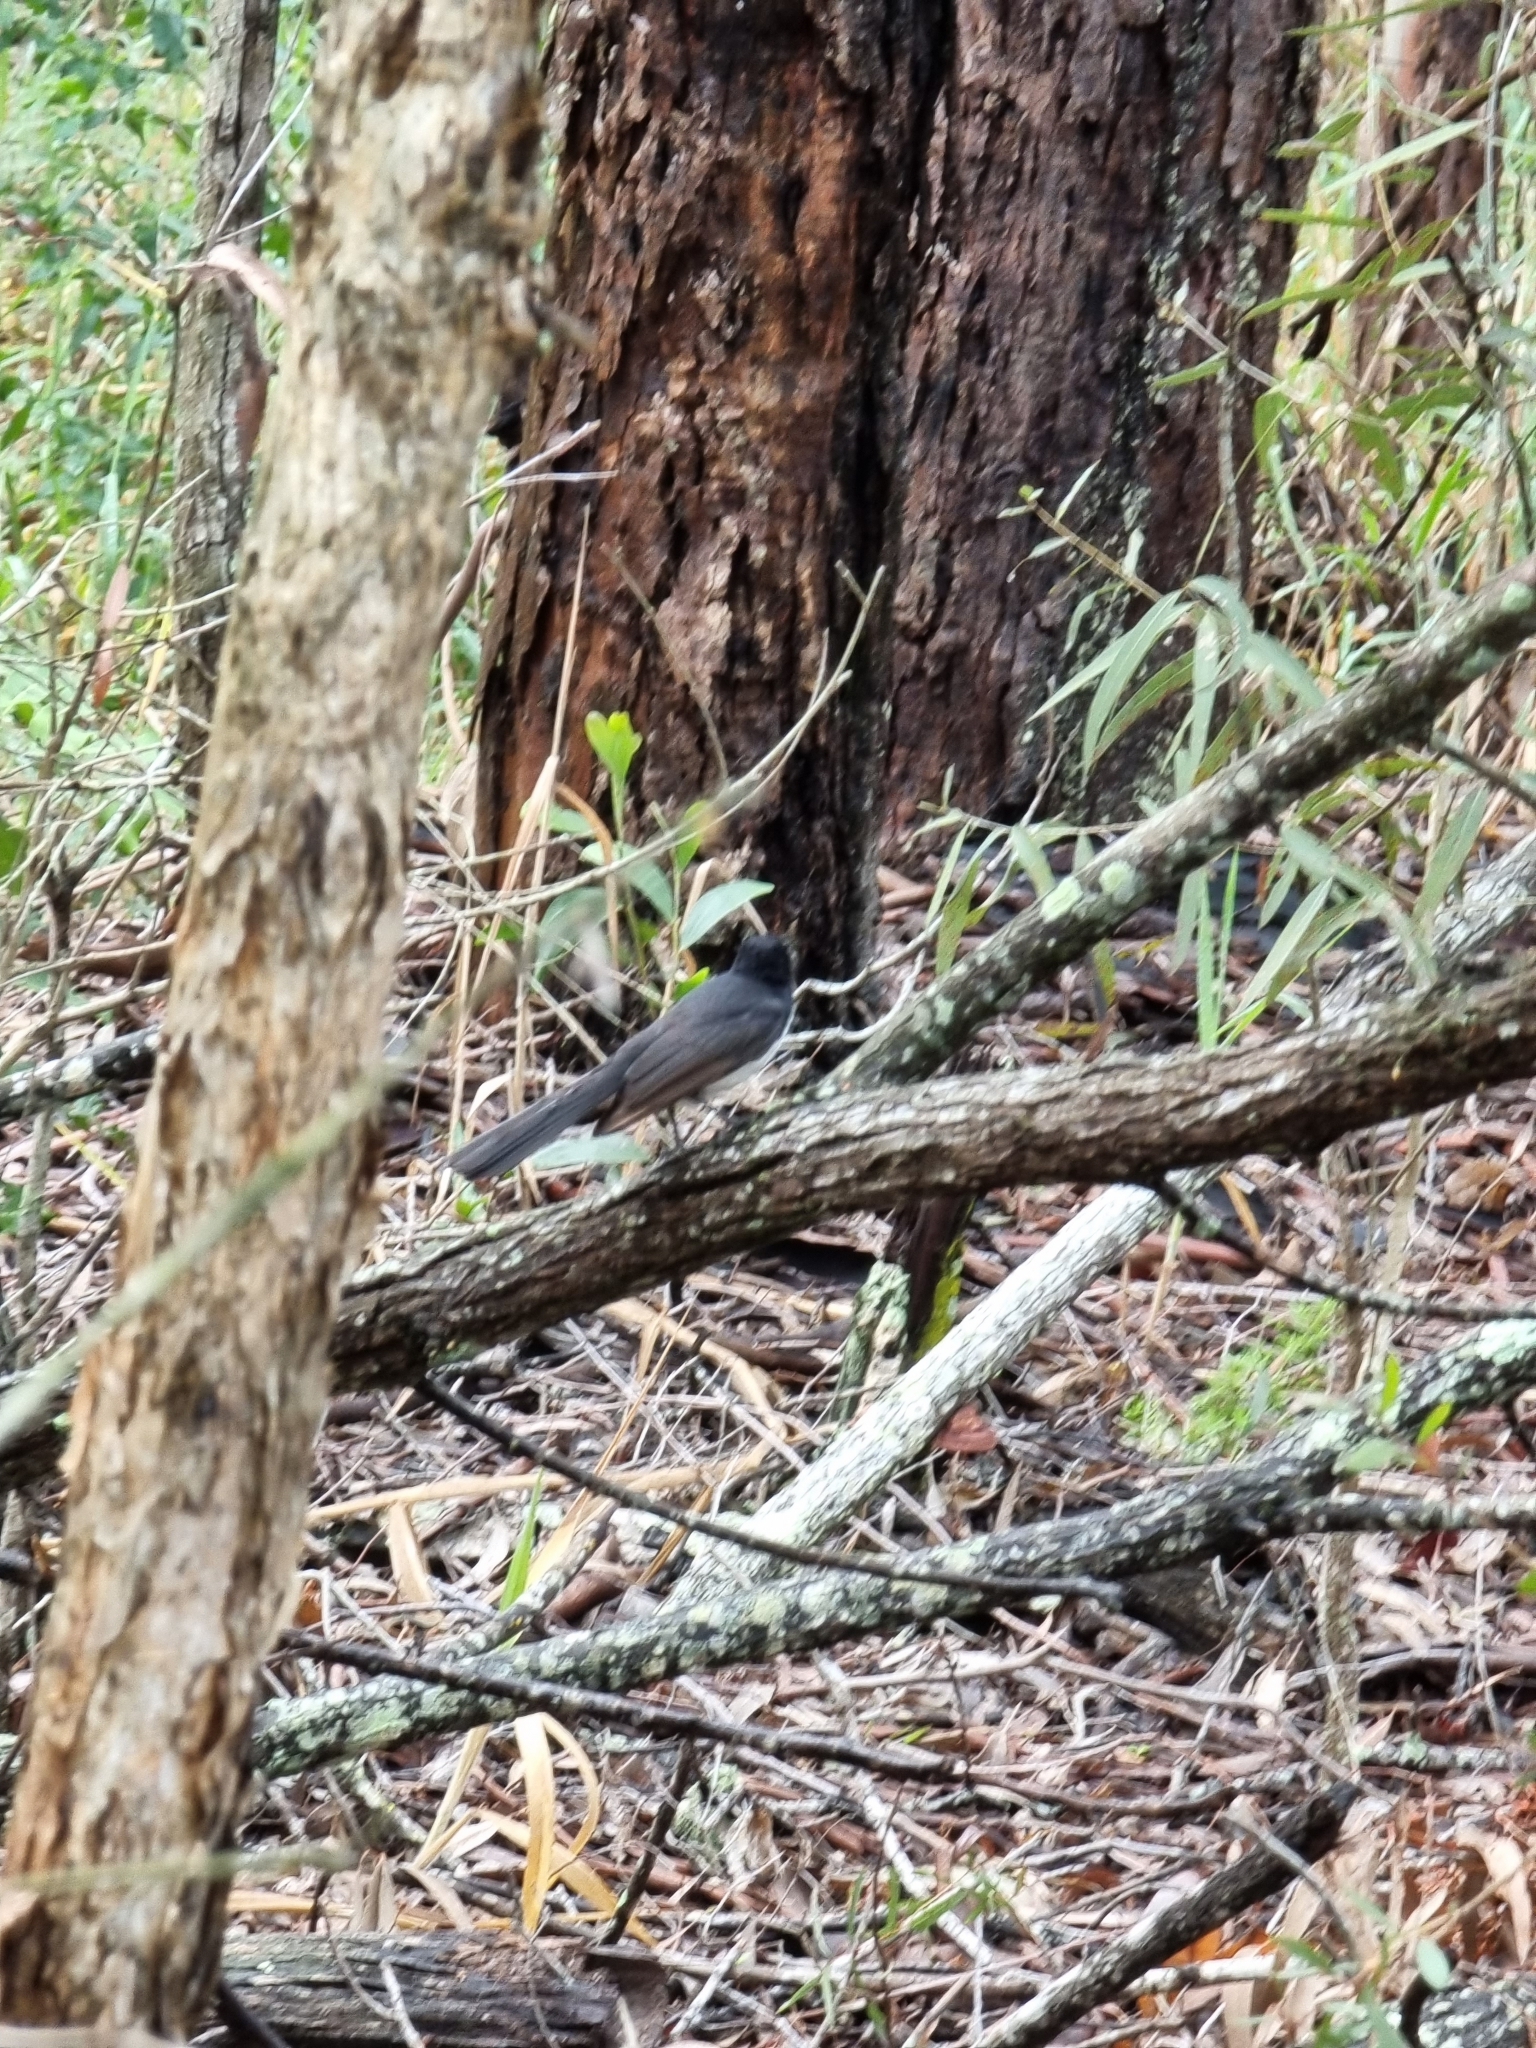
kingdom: Animalia
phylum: Chordata
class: Aves
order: Passeriformes
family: Rhipiduridae
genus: Rhipidura
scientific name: Rhipidura leucophrys
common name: Willie wagtail
